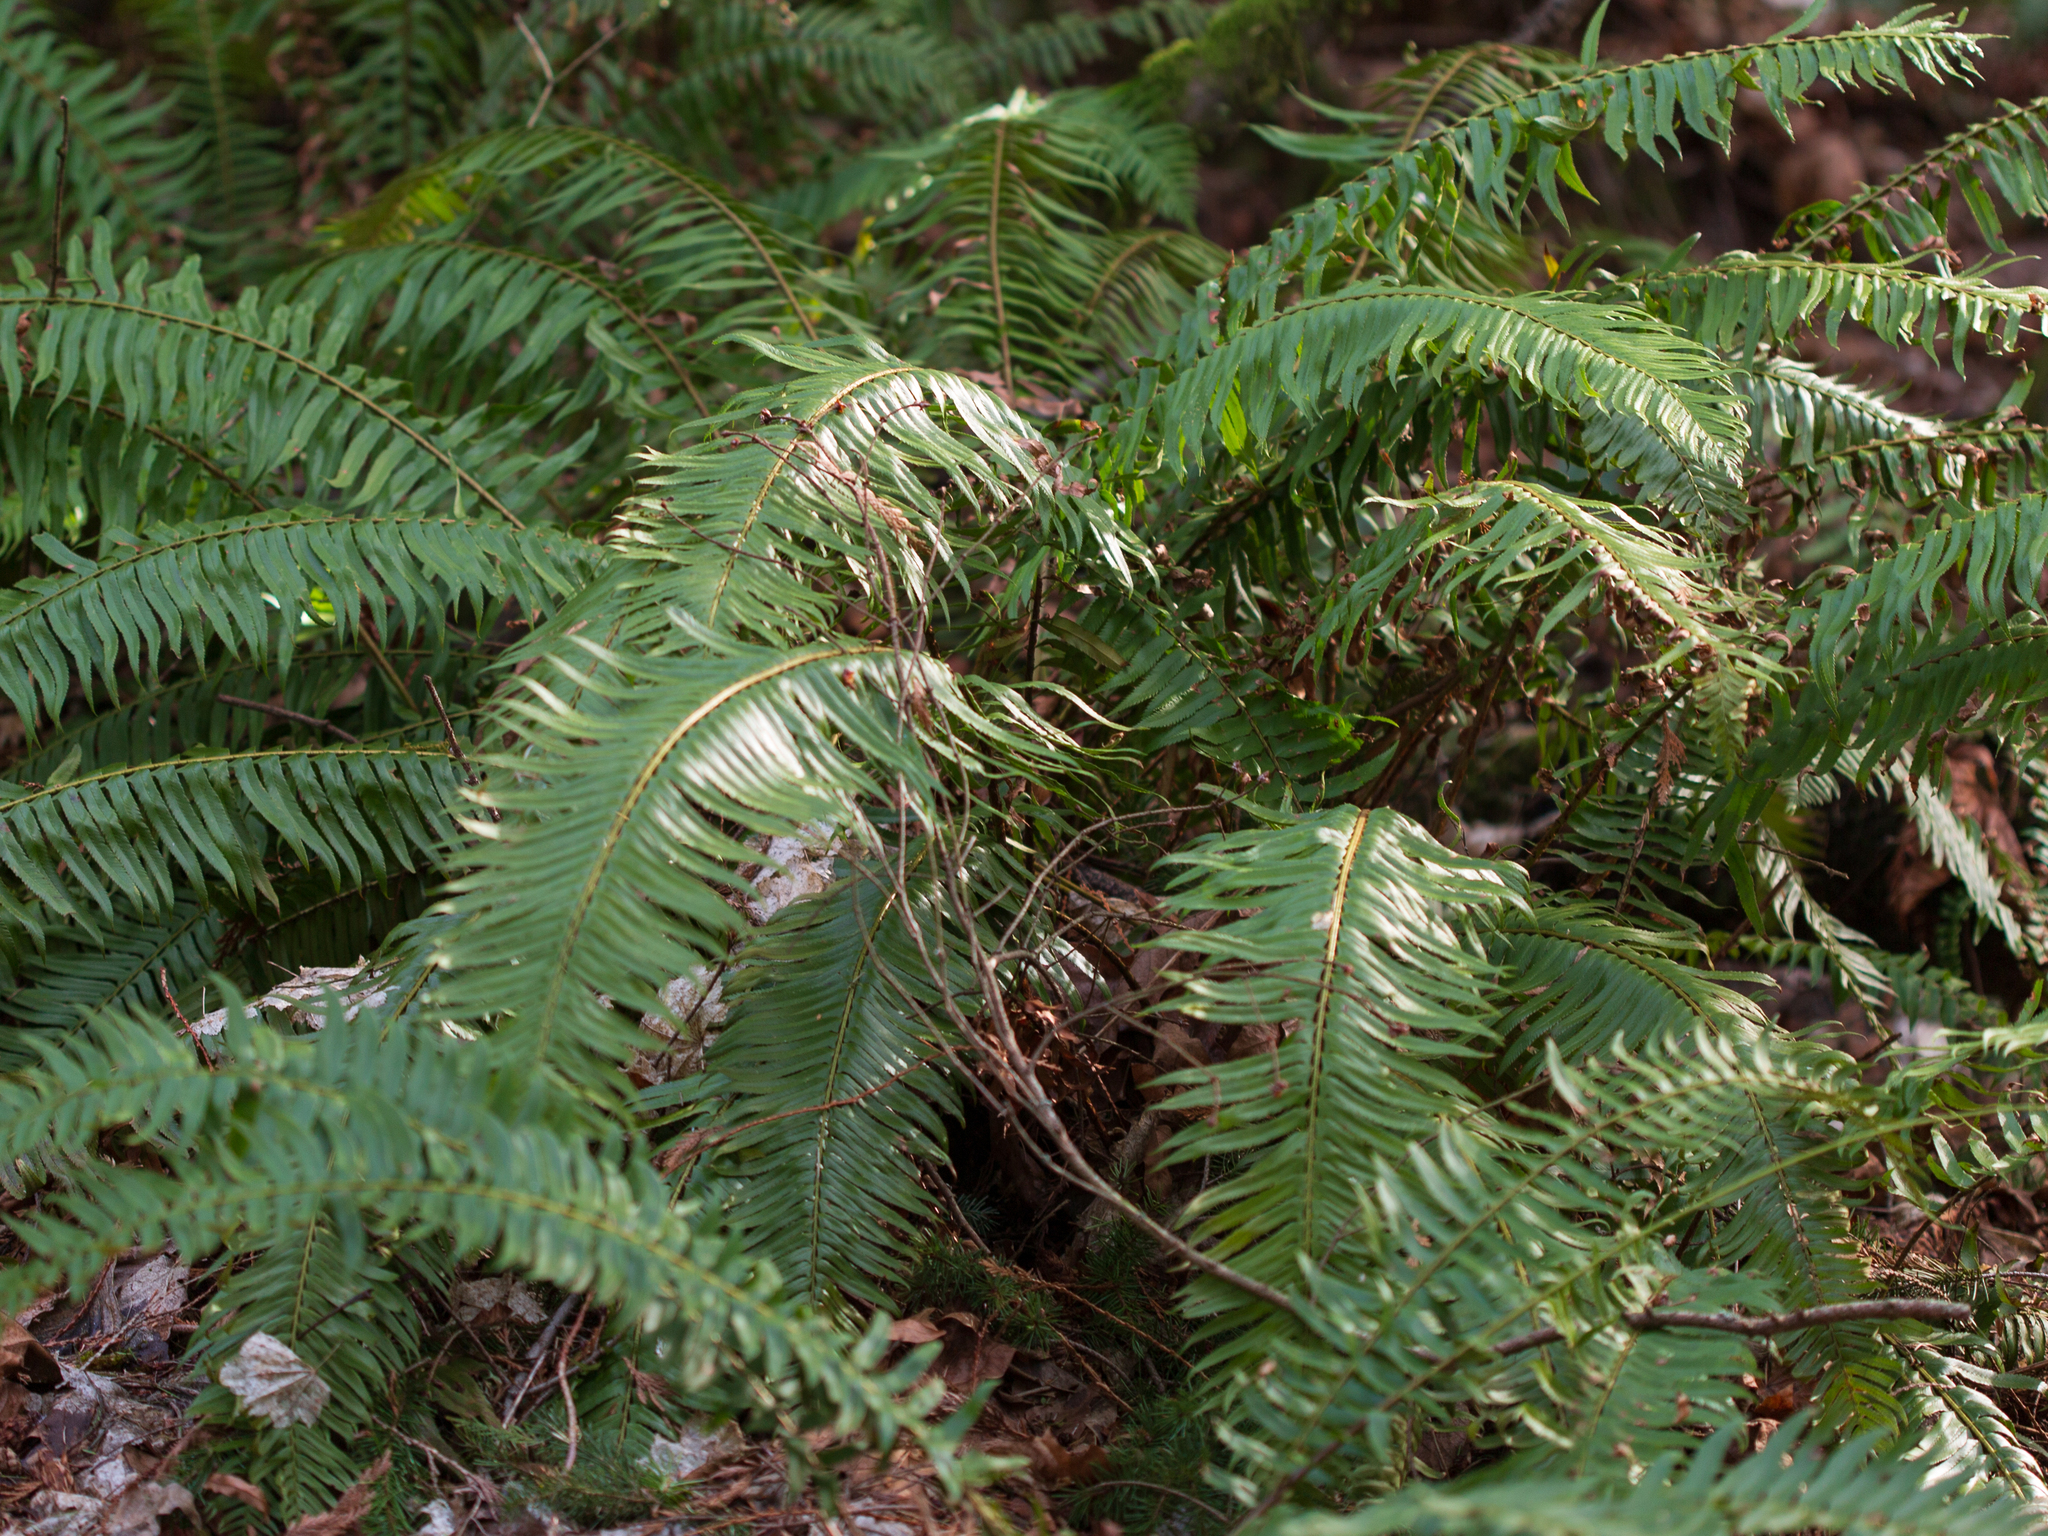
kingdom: Plantae
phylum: Tracheophyta
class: Polypodiopsida
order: Polypodiales
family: Dryopteridaceae
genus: Polystichum
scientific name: Polystichum munitum
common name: Western sword-fern
